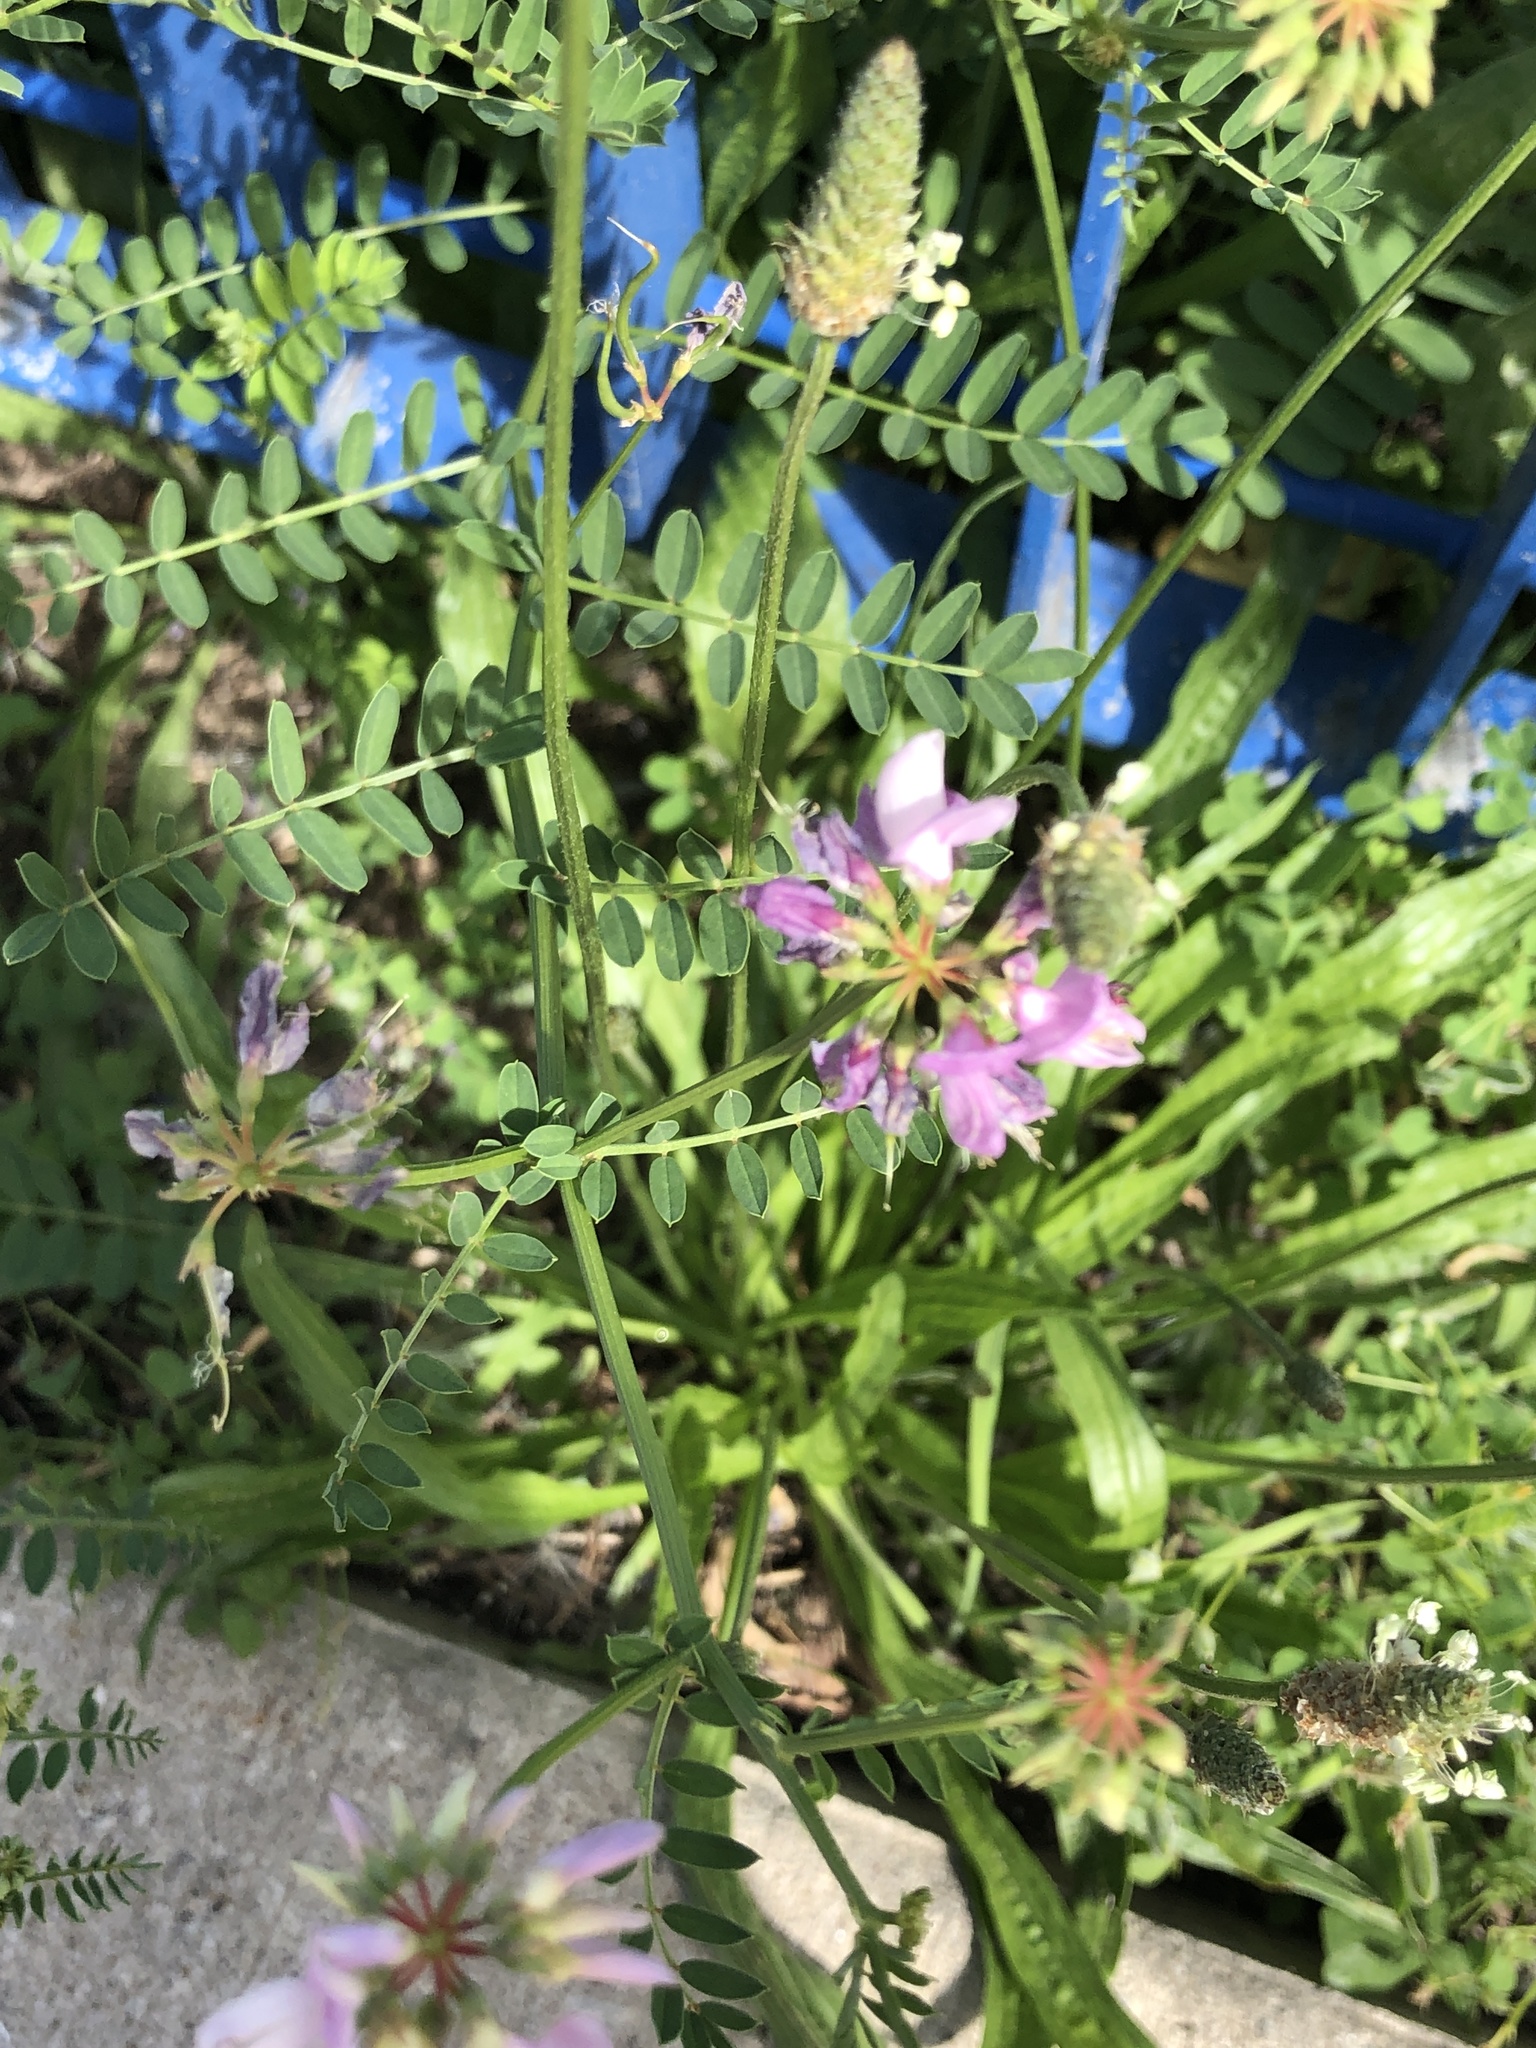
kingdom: Plantae
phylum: Tracheophyta
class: Magnoliopsida
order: Fabales
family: Fabaceae
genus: Coronilla
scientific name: Coronilla varia
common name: Crownvetch
